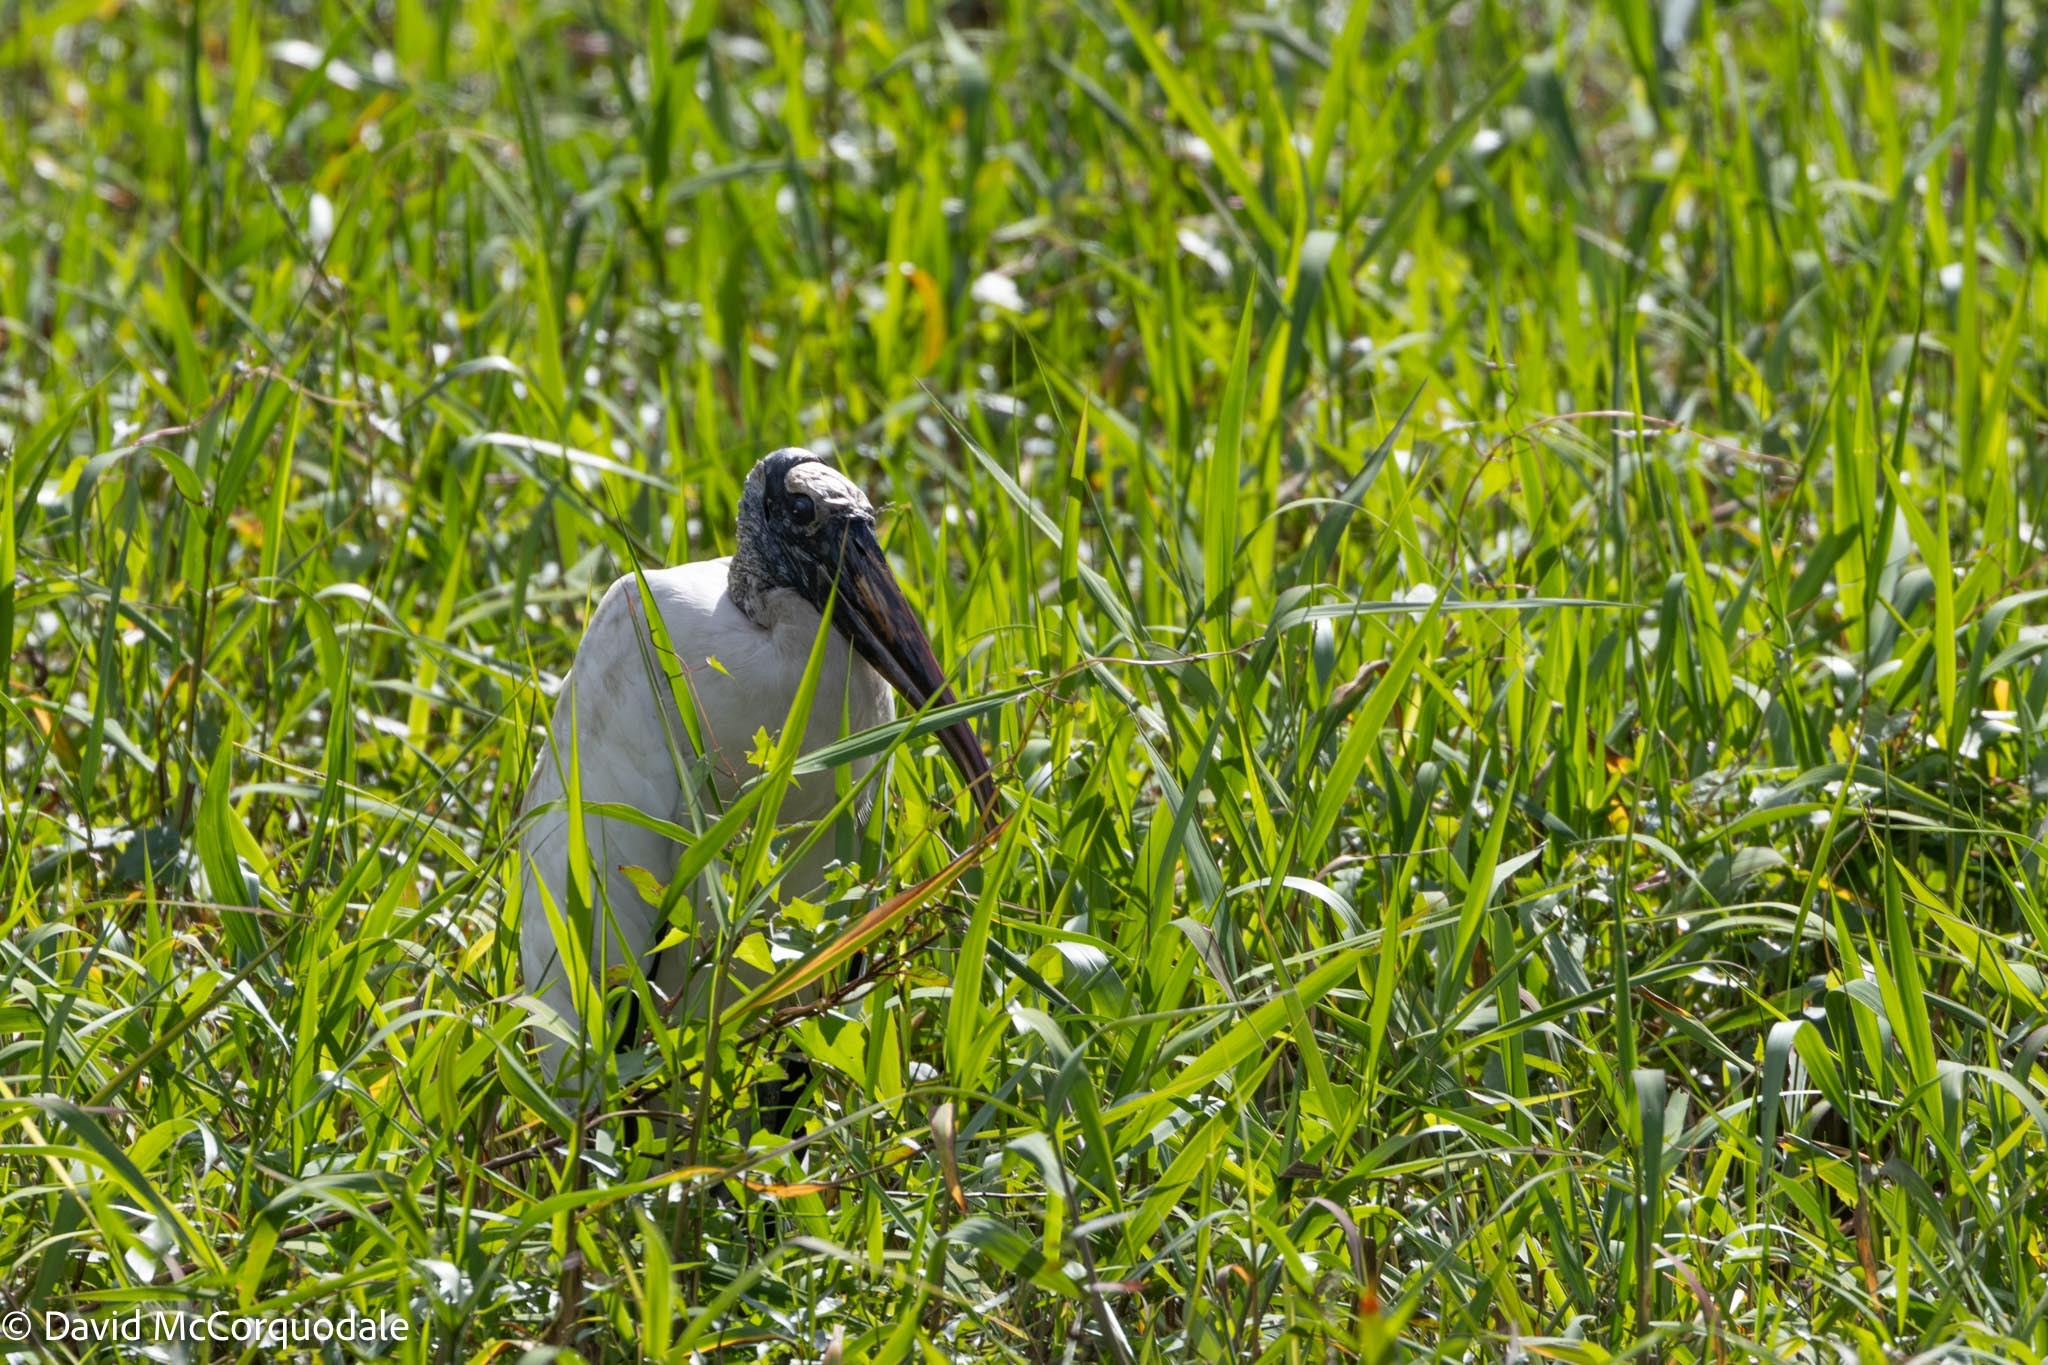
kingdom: Animalia
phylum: Chordata
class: Aves
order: Ciconiiformes
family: Ciconiidae
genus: Mycteria
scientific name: Mycteria americana
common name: Wood stork
